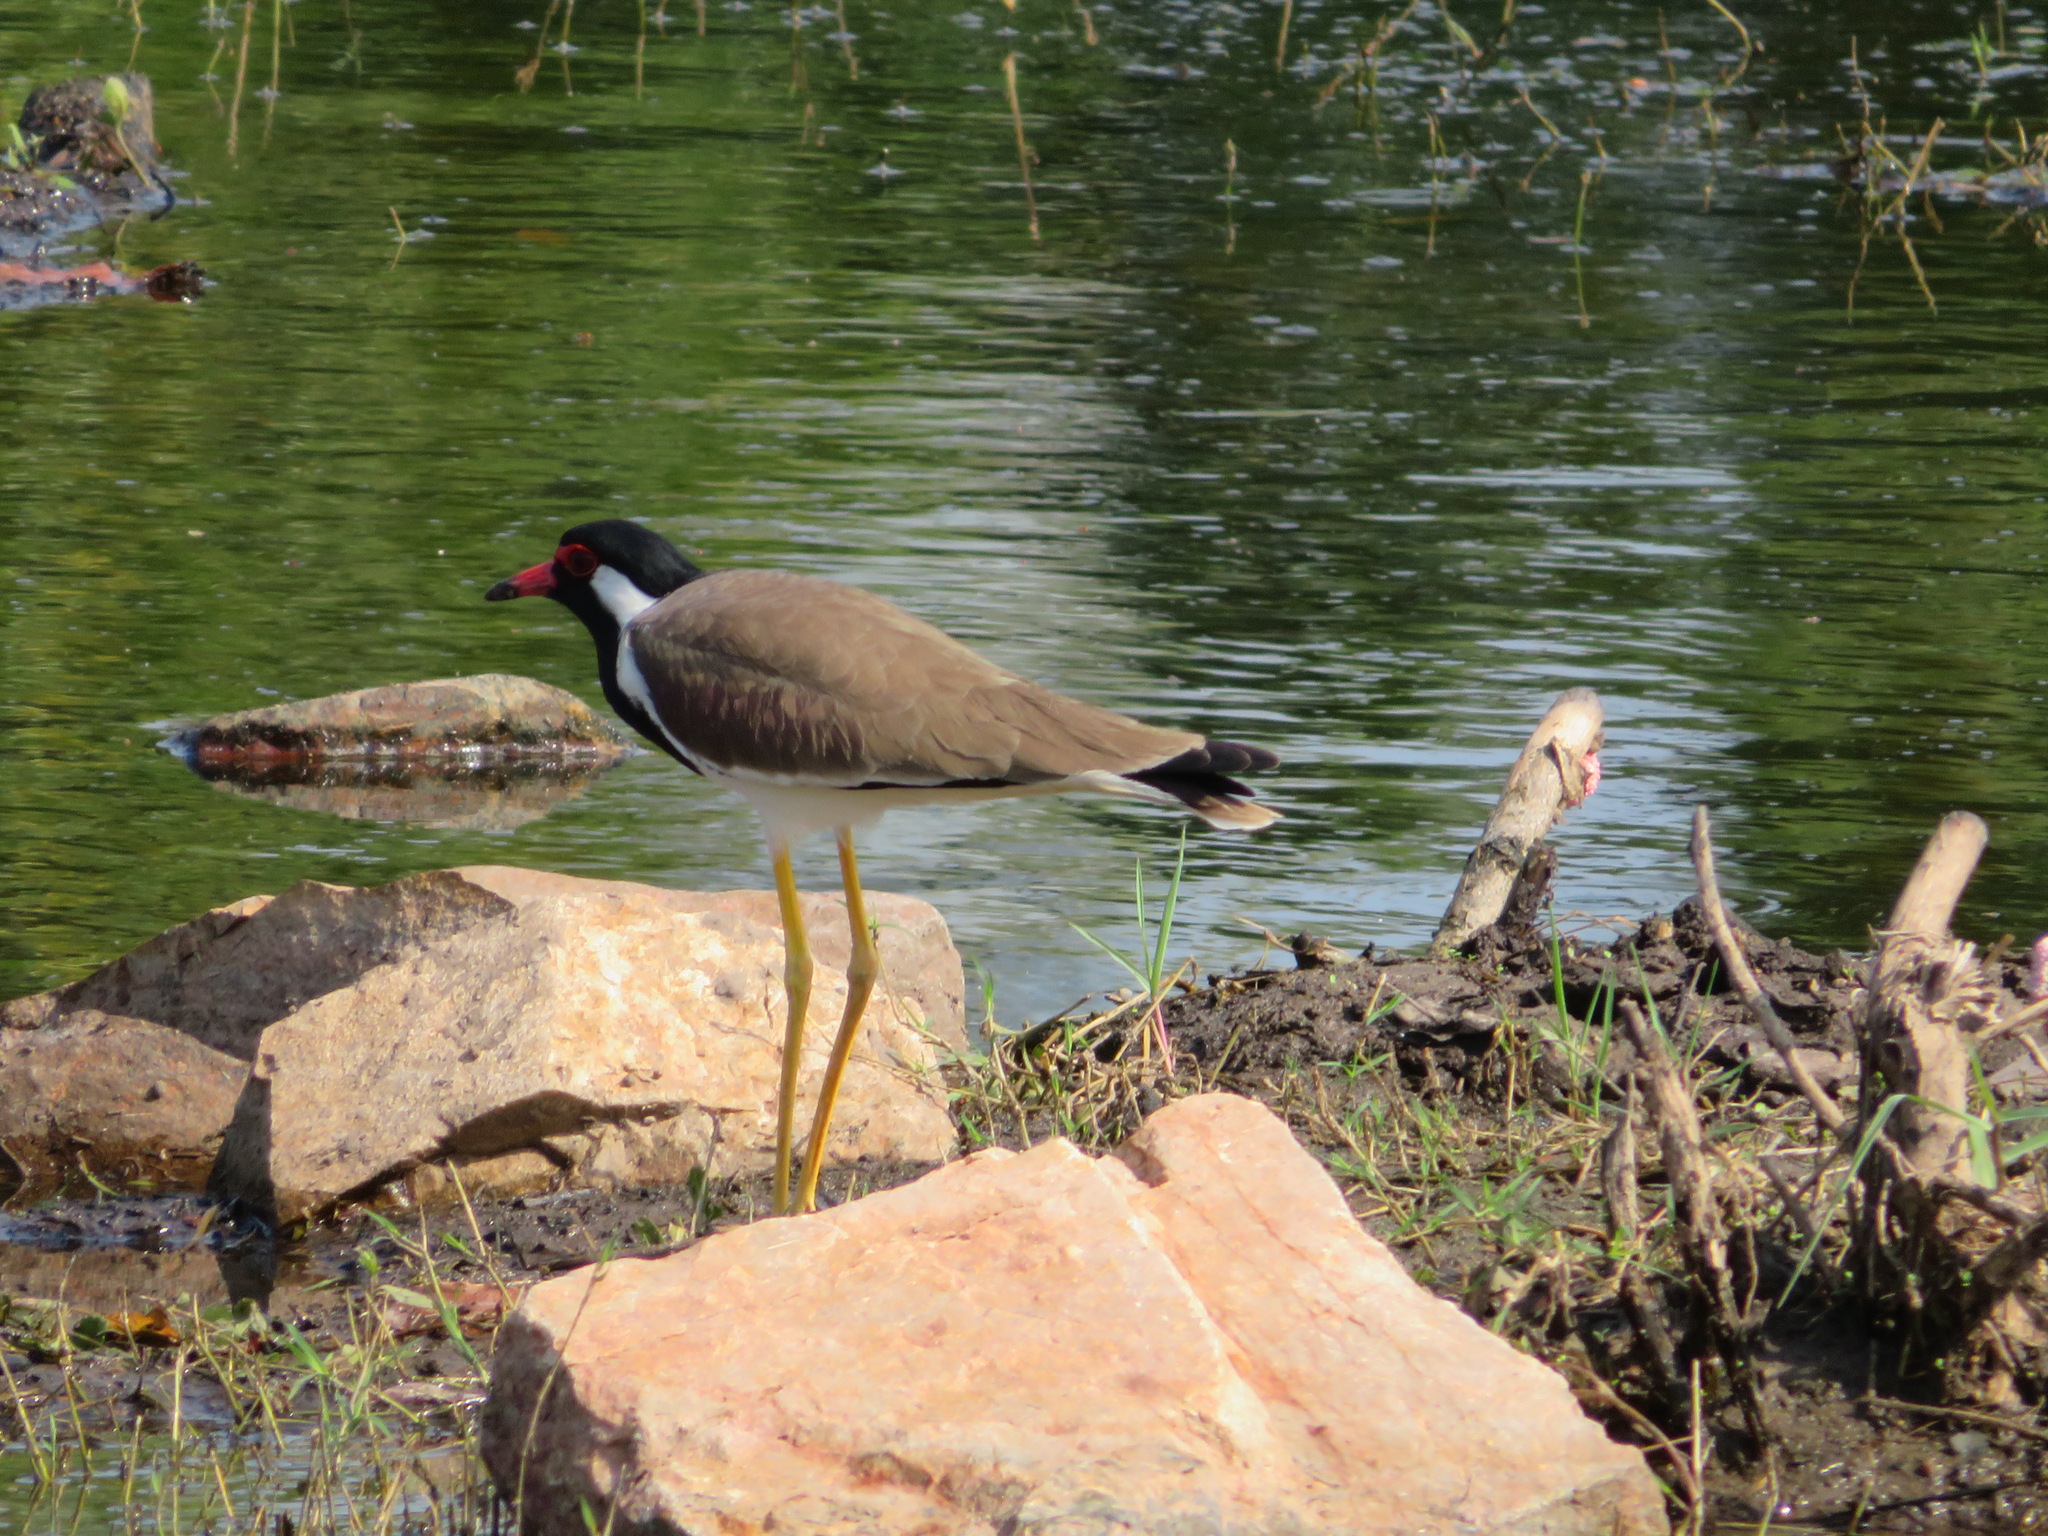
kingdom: Animalia
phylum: Chordata
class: Aves
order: Charadriiformes
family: Charadriidae
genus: Vanellus
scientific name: Vanellus indicus
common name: Red-wattled lapwing
